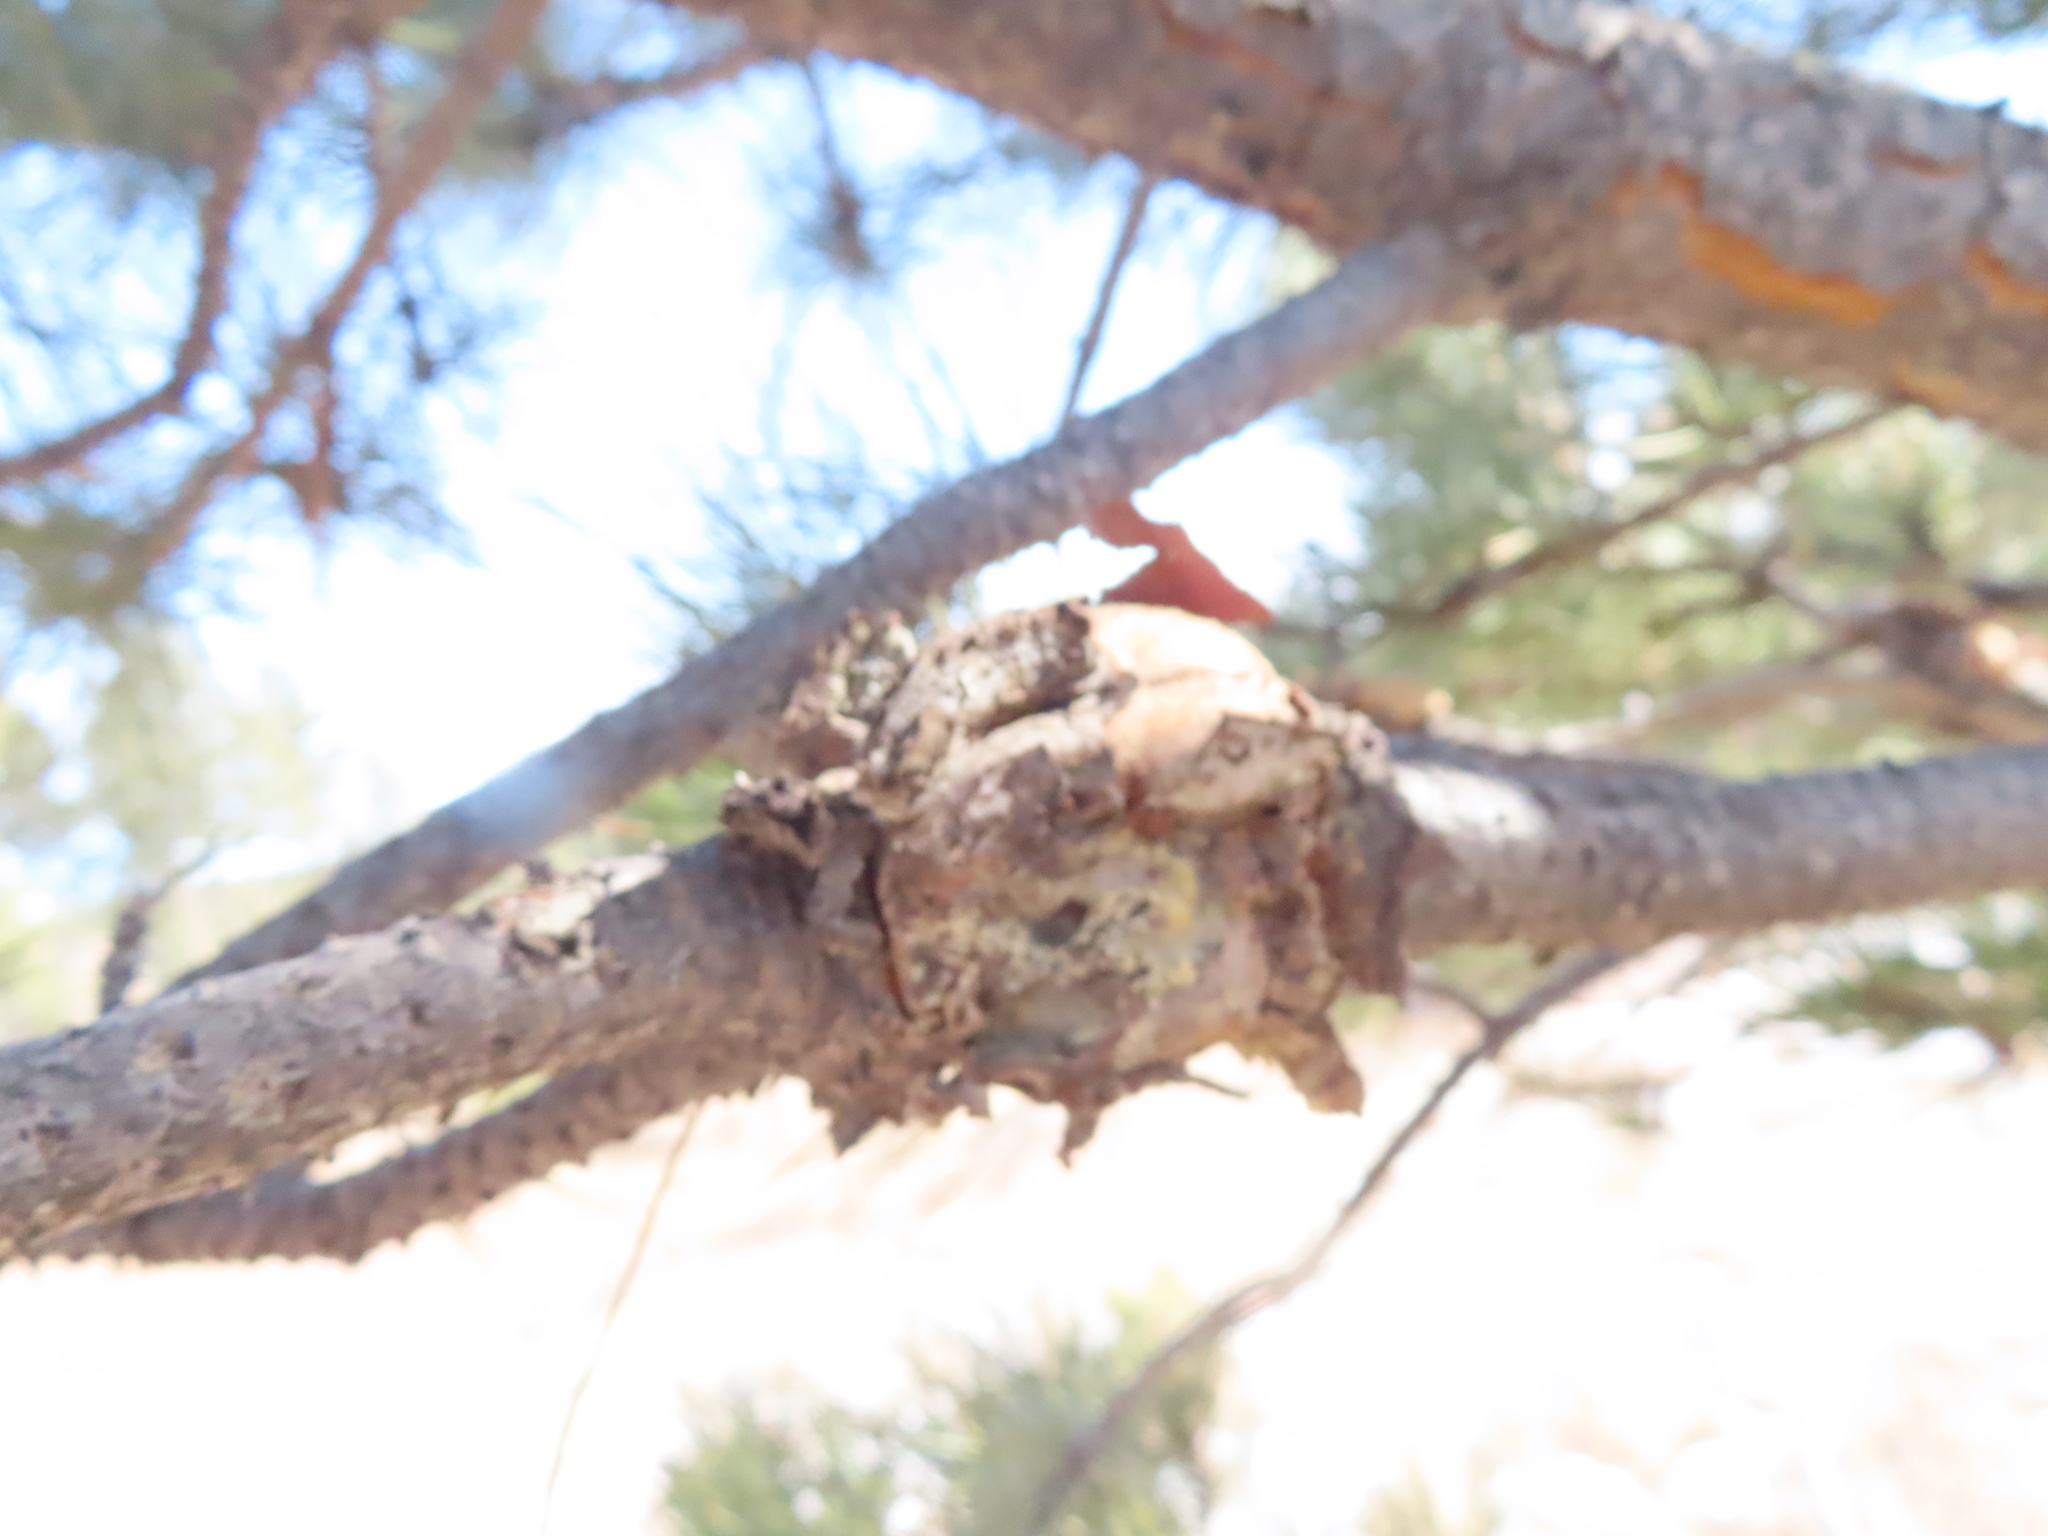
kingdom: Fungi
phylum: Basidiomycota
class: Pucciniomycetes
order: Pucciniales
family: Cronartiaceae
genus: Cronartium
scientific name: Cronartium harknessii
